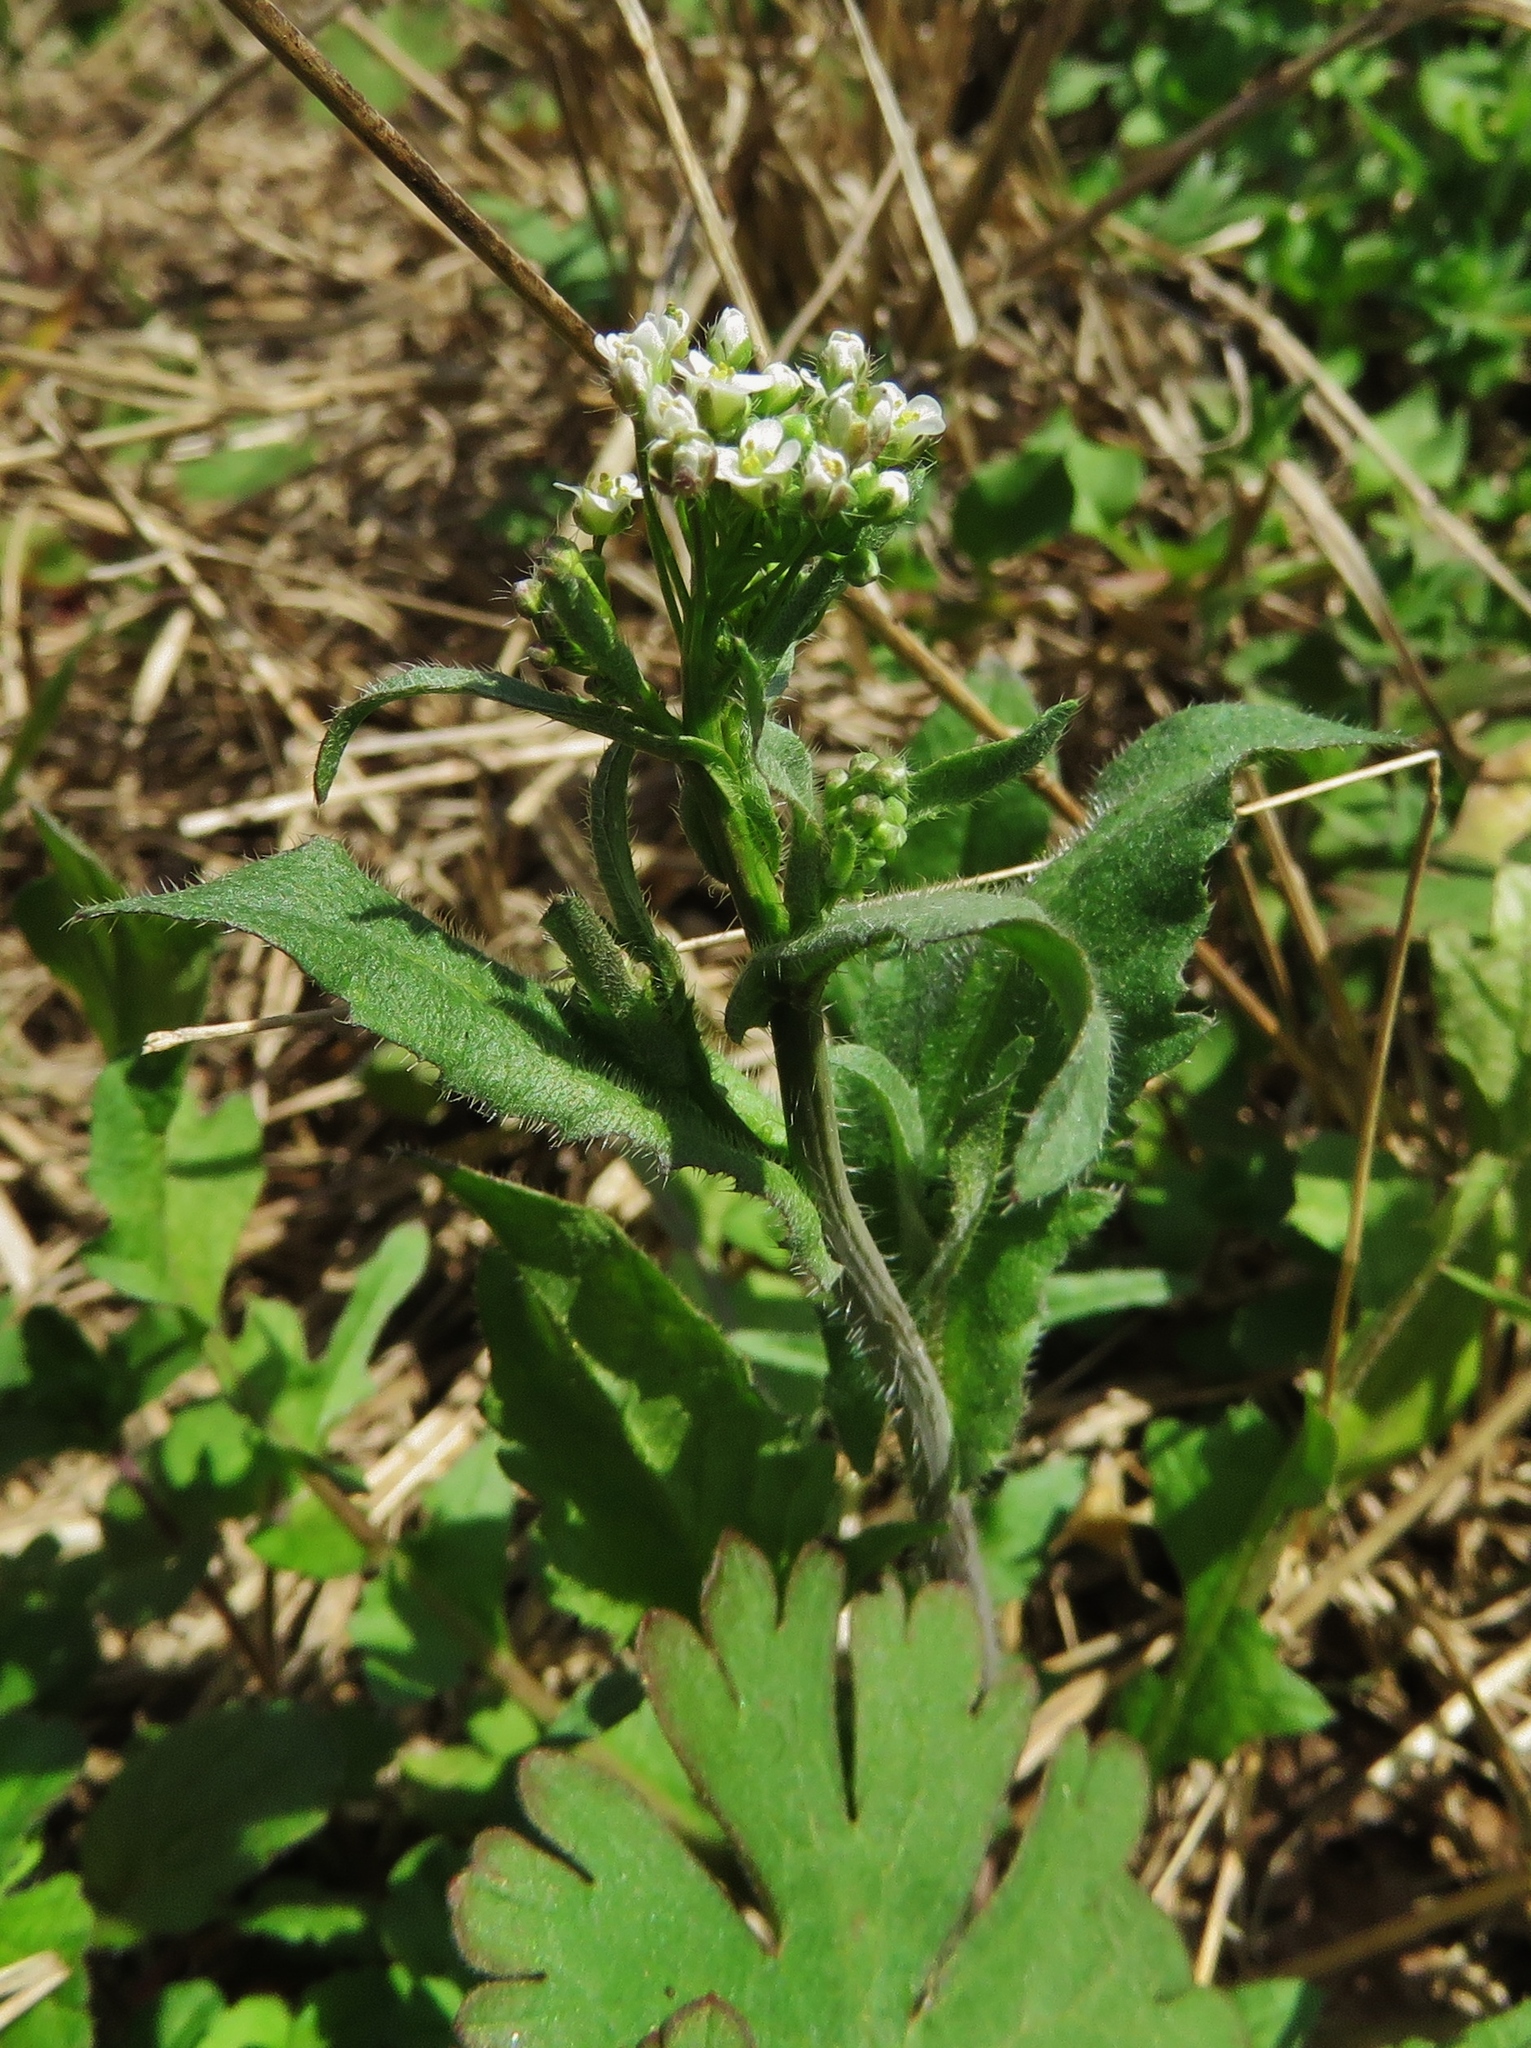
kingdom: Plantae
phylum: Tracheophyta
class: Magnoliopsida
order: Brassicales
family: Brassicaceae
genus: Capsella
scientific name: Capsella bursa-pastoris
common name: Shepherd's purse
